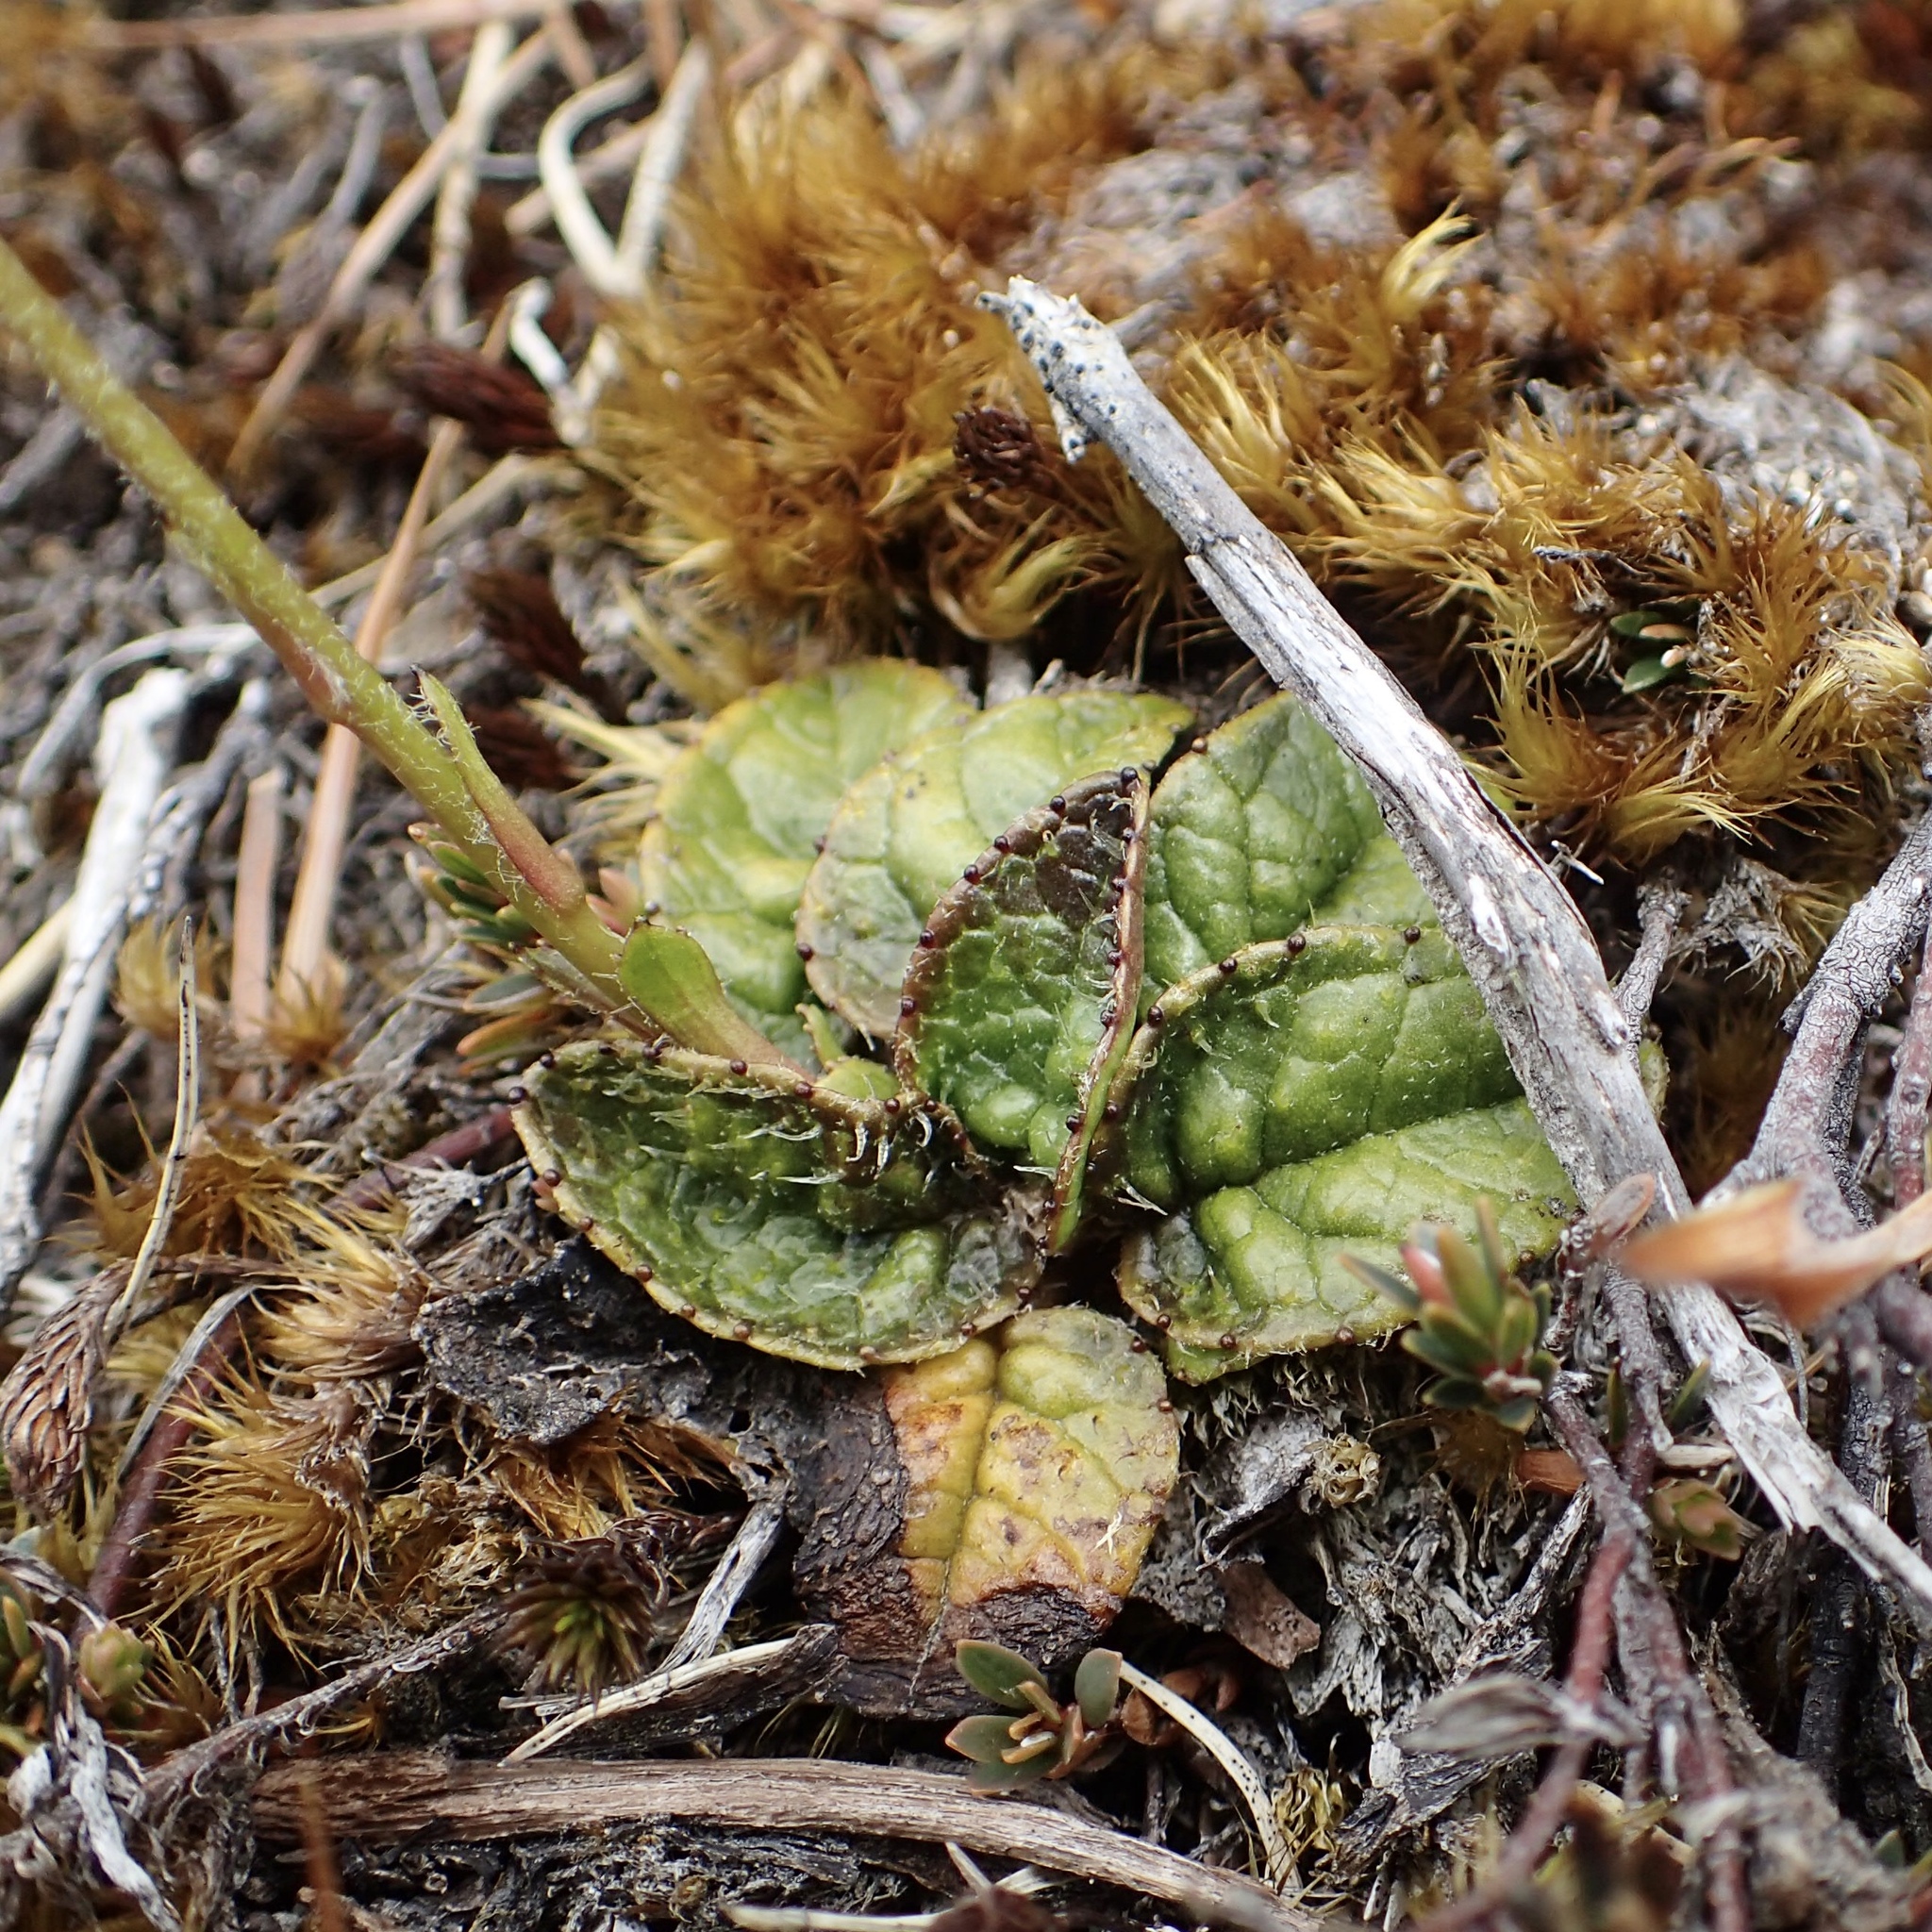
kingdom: Plantae
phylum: Tracheophyta
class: Magnoliopsida
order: Asterales
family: Asteraceae
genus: Brachyglottis
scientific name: Brachyglottis bellidioides
